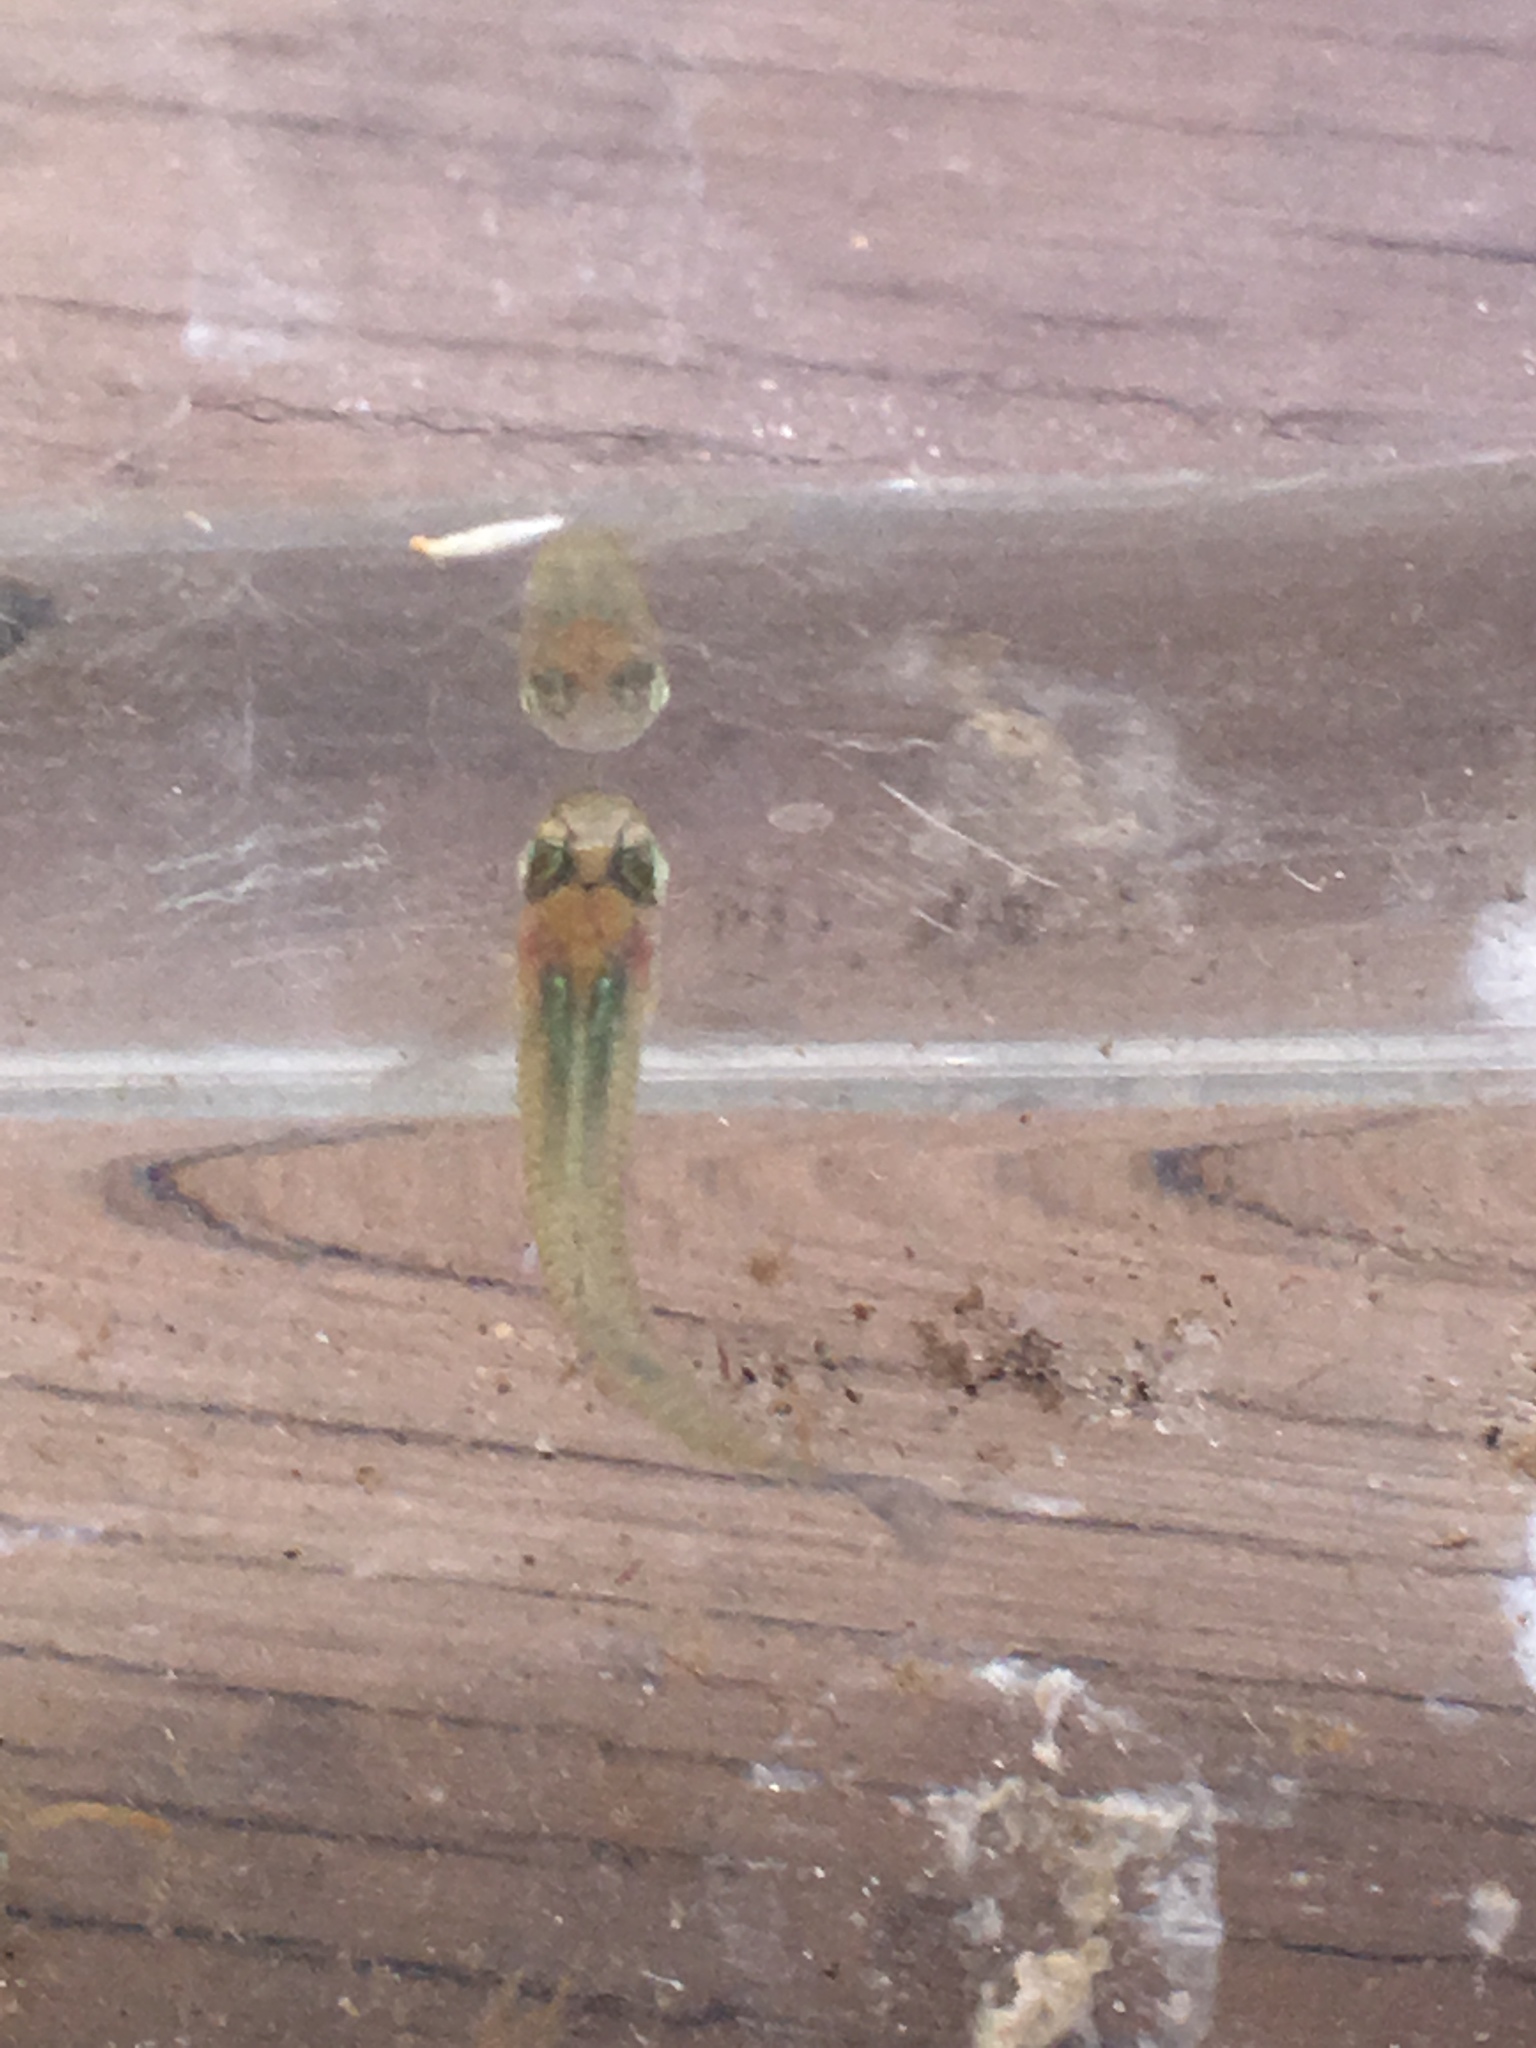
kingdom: Animalia
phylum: Chordata
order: Cyprinodontiformes
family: Poeciliidae
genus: Gambusia
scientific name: Gambusia holbrooki
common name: Eastern mosquitofish
